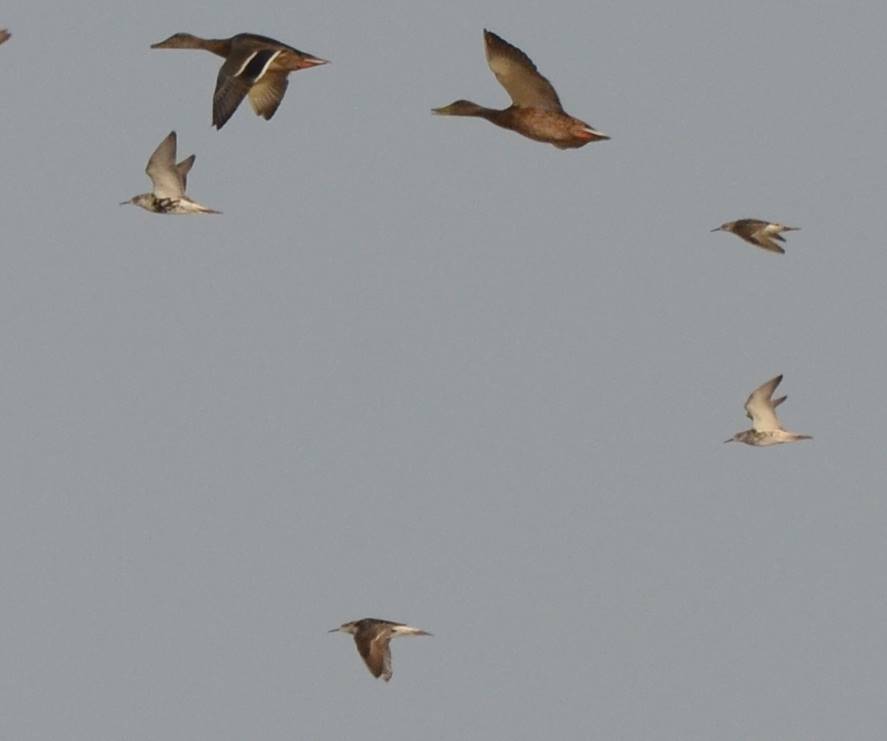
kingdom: Animalia
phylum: Chordata
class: Aves
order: Charadriiformes
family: Scolopacidae
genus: Calidris
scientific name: Calidris pugnax
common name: Ruff
